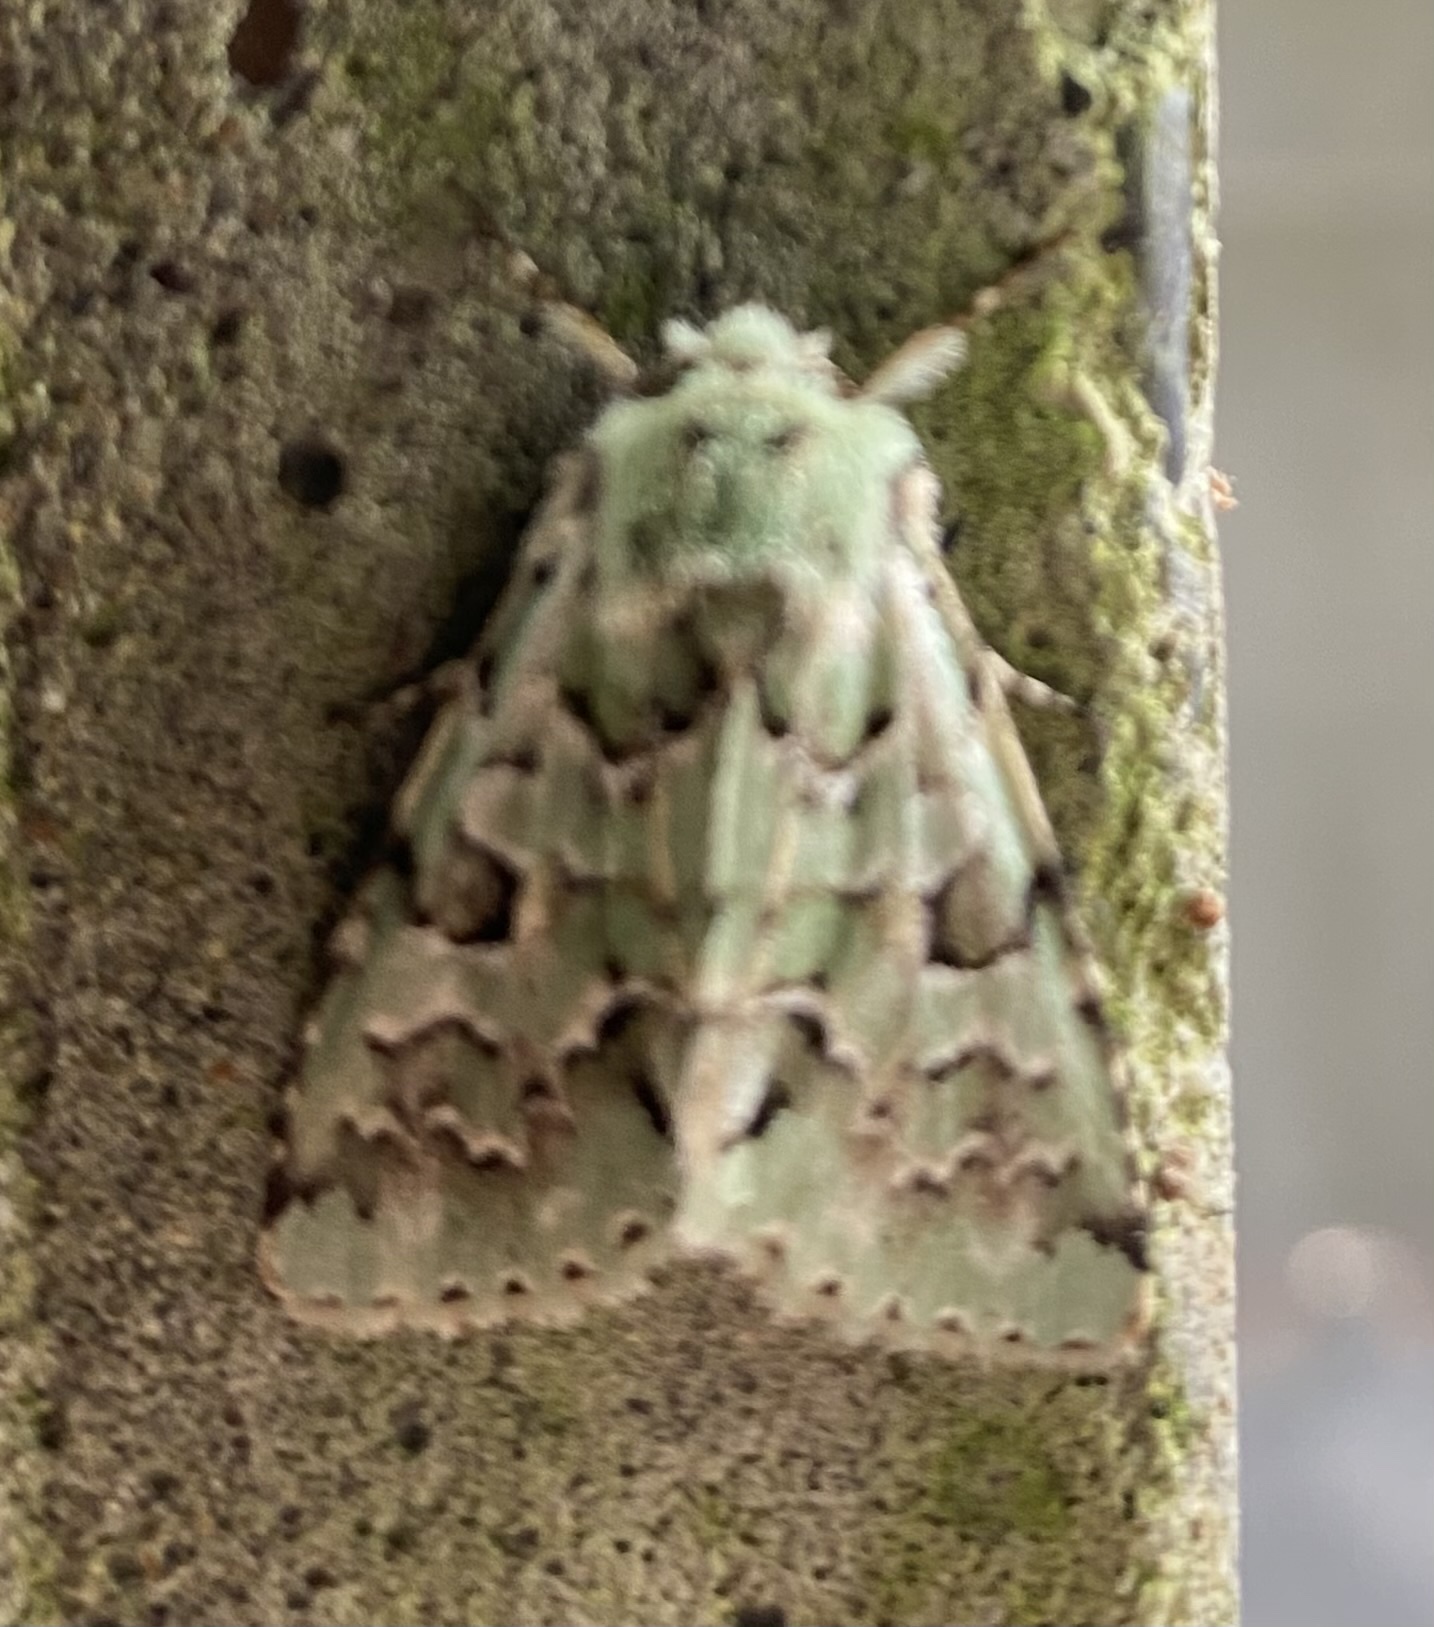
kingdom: Animalia
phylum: Arthropoda
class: Insecta
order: Lepidoptera
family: Noctuidae
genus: Daseochaeta
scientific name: Daseochaeta viridis
